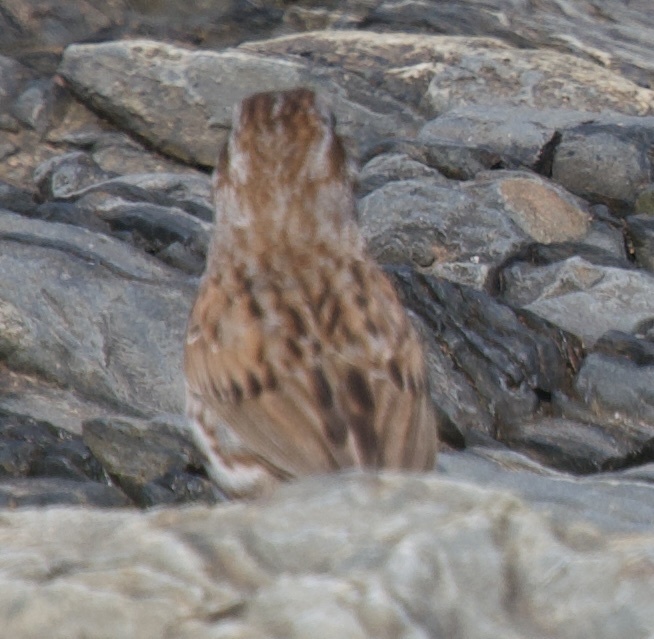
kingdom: Animalia
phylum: Chordata
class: Aves
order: Passeriformes
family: Passerellidae
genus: Melospiza
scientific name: Melospiza melodia
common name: Song sparrow
